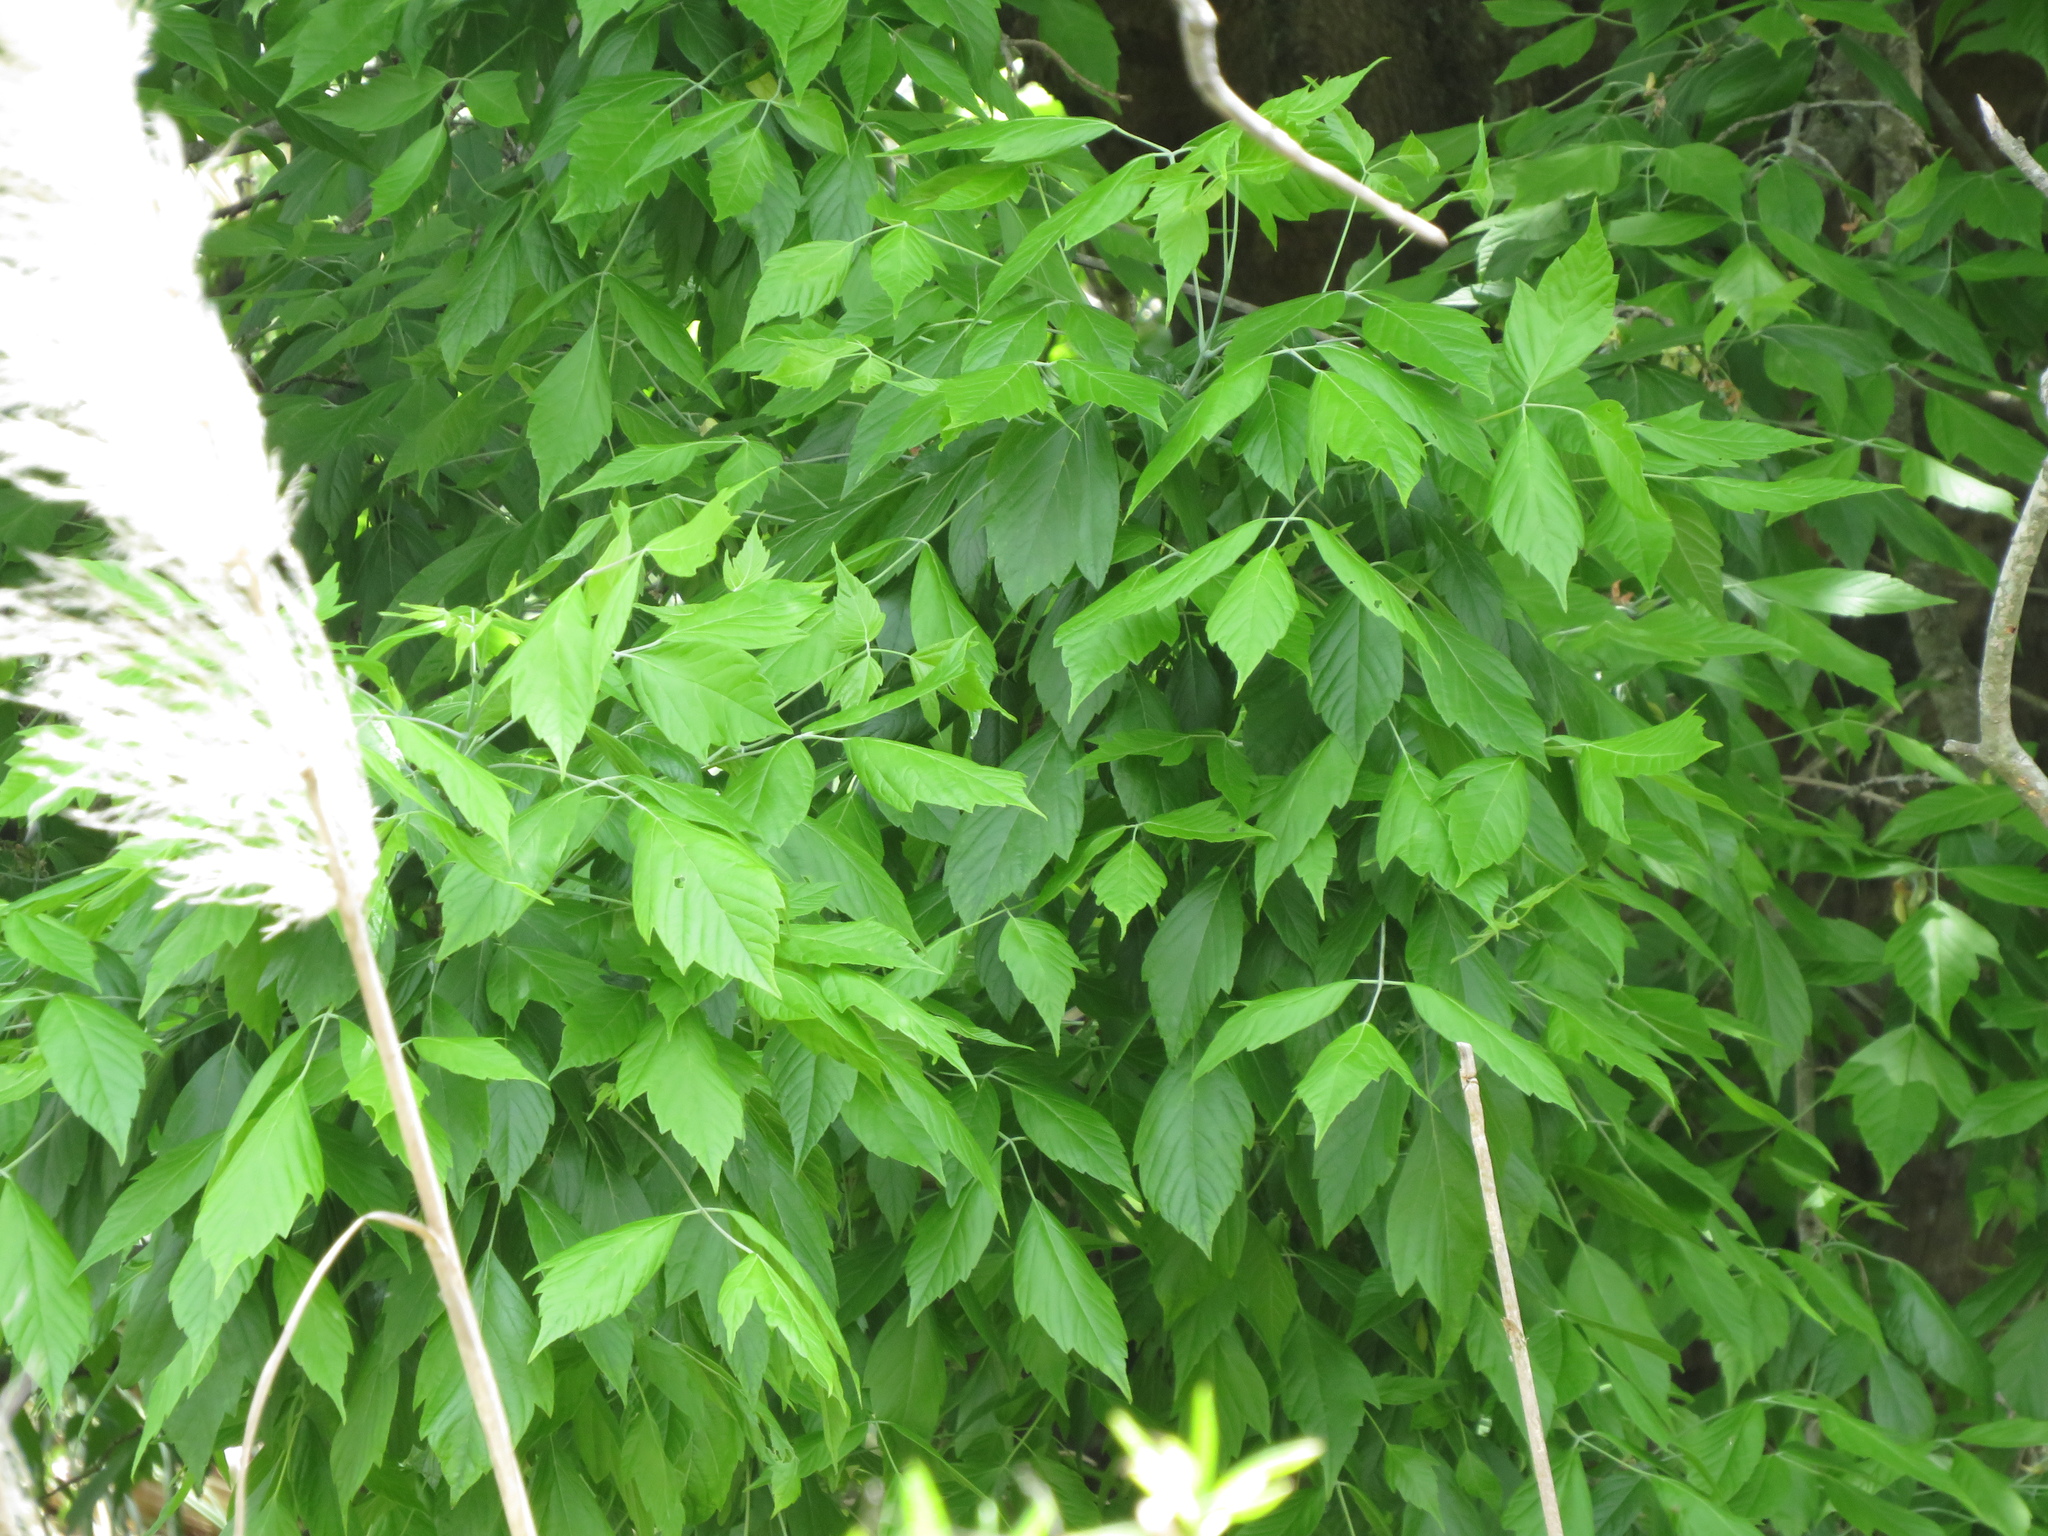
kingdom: Plantae
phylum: Tracheophyta
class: Magnoliopsida
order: Sapindales
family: Sapindaceae
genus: Acer
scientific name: Acer negundo
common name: Ashleaf maple
